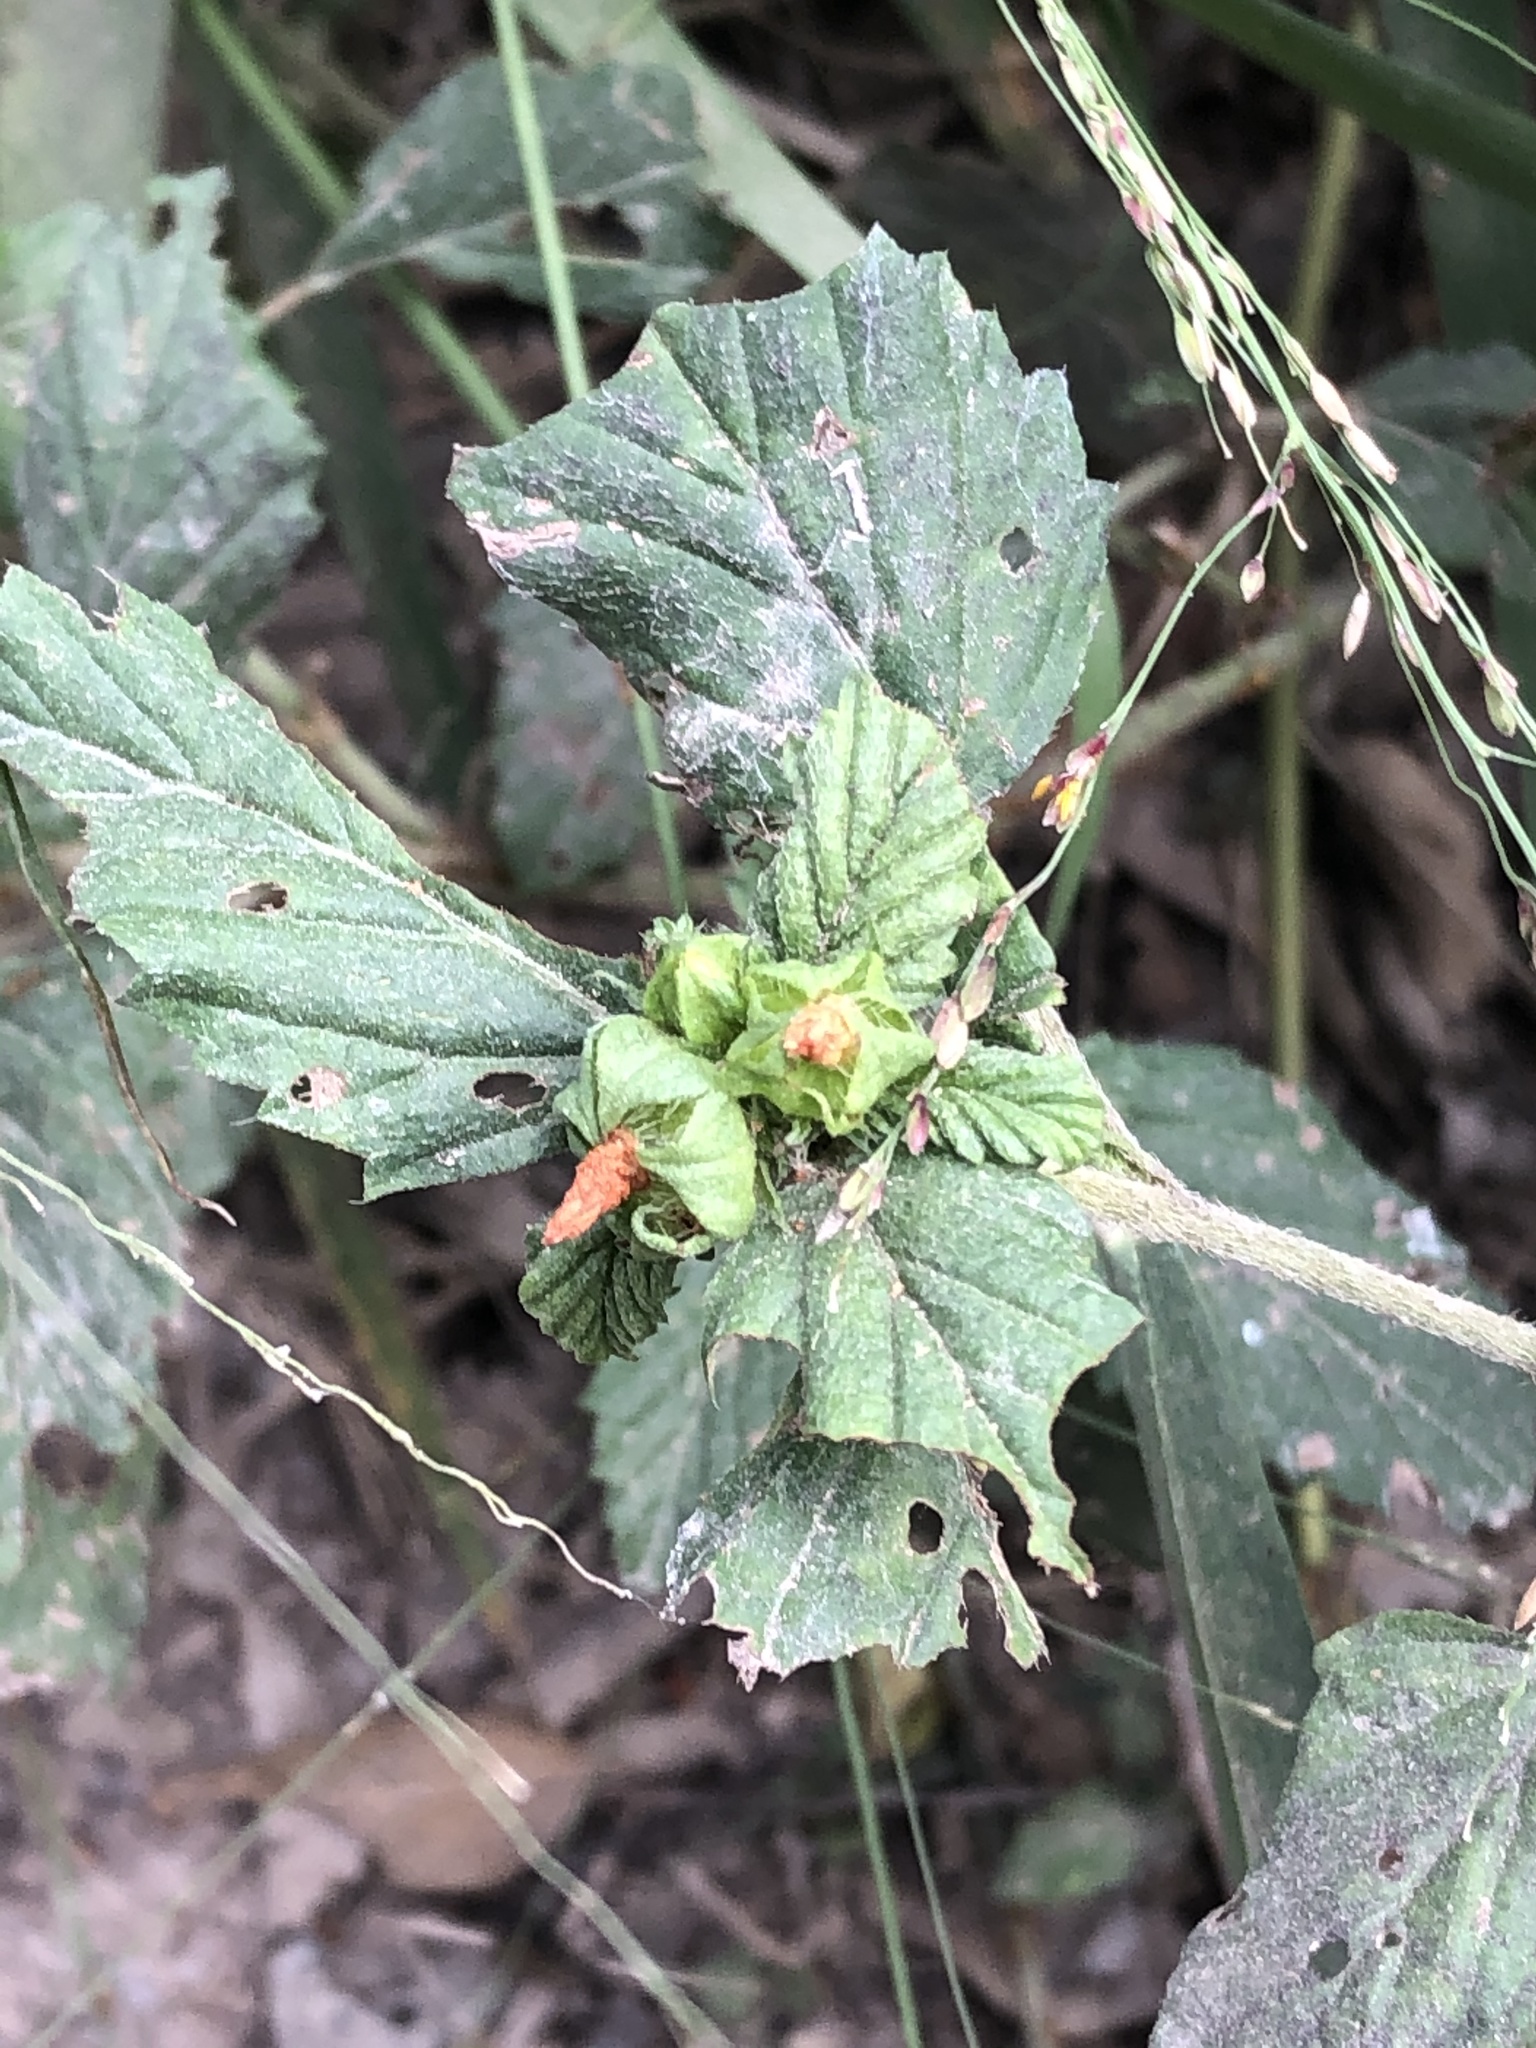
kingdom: Plantae
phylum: Tracheophyta
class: Magnoliopsida
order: Malvales
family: Malvaceae
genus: Malvastrum
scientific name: Malvastrum coromandelianum
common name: Threelobe false mallow
